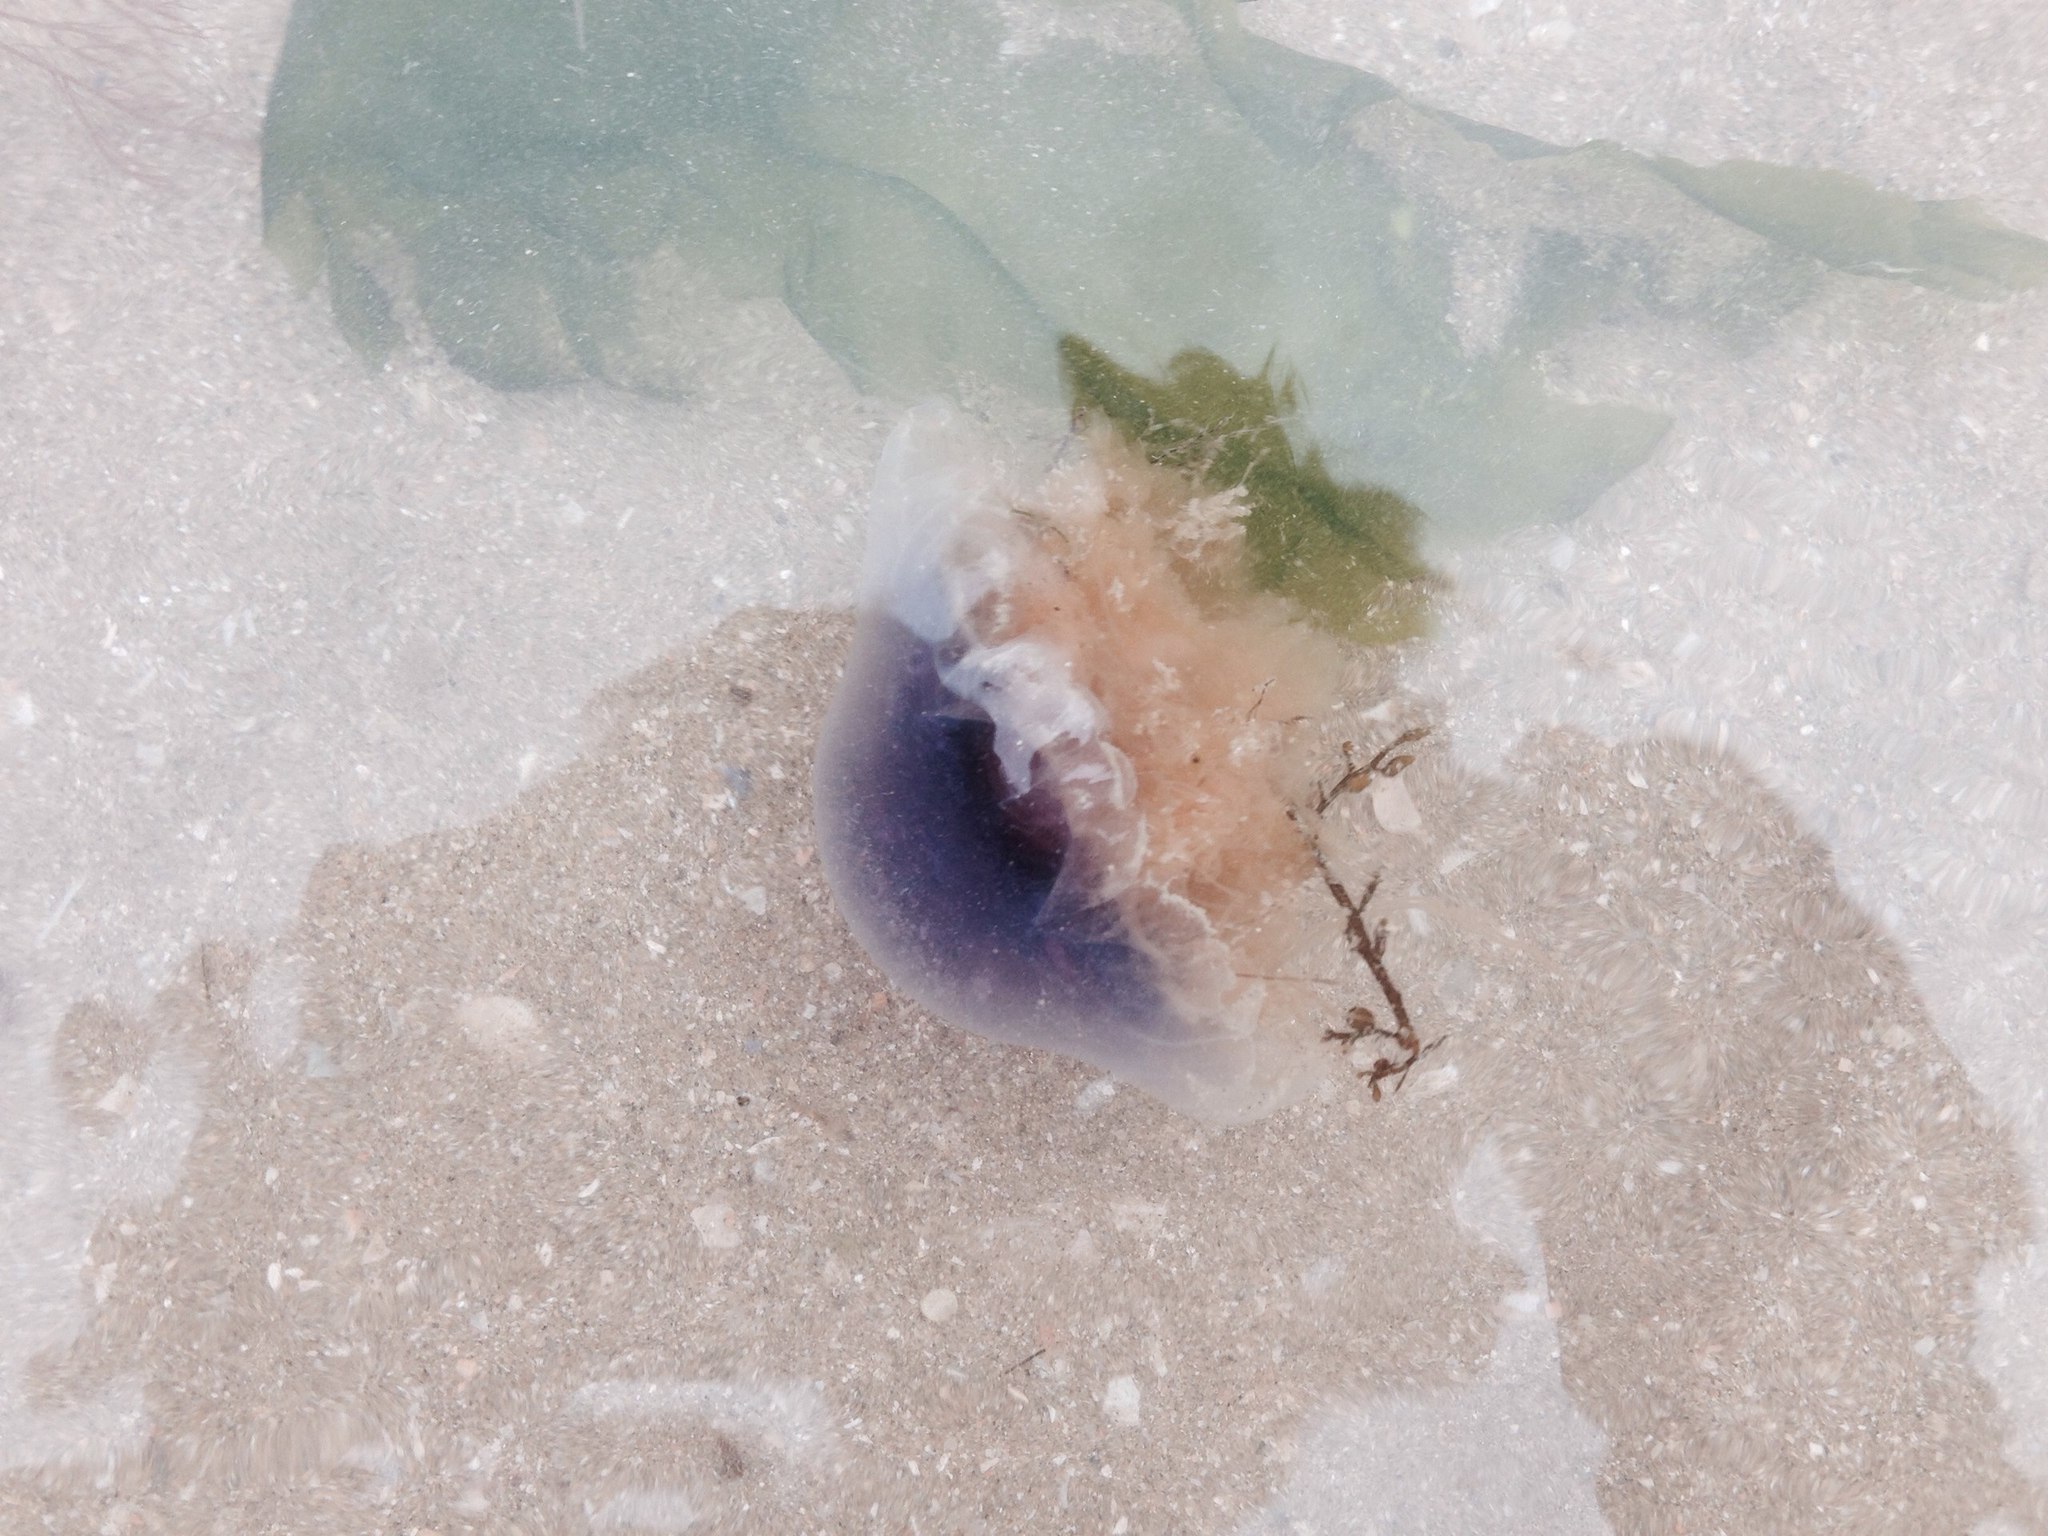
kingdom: Animalia
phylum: Cnidaria
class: Scyphozoa
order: Semaeostomeae
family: Cyaneidae
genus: Cyanea
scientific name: Cyanea lamarckii
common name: Blue jellyfish
